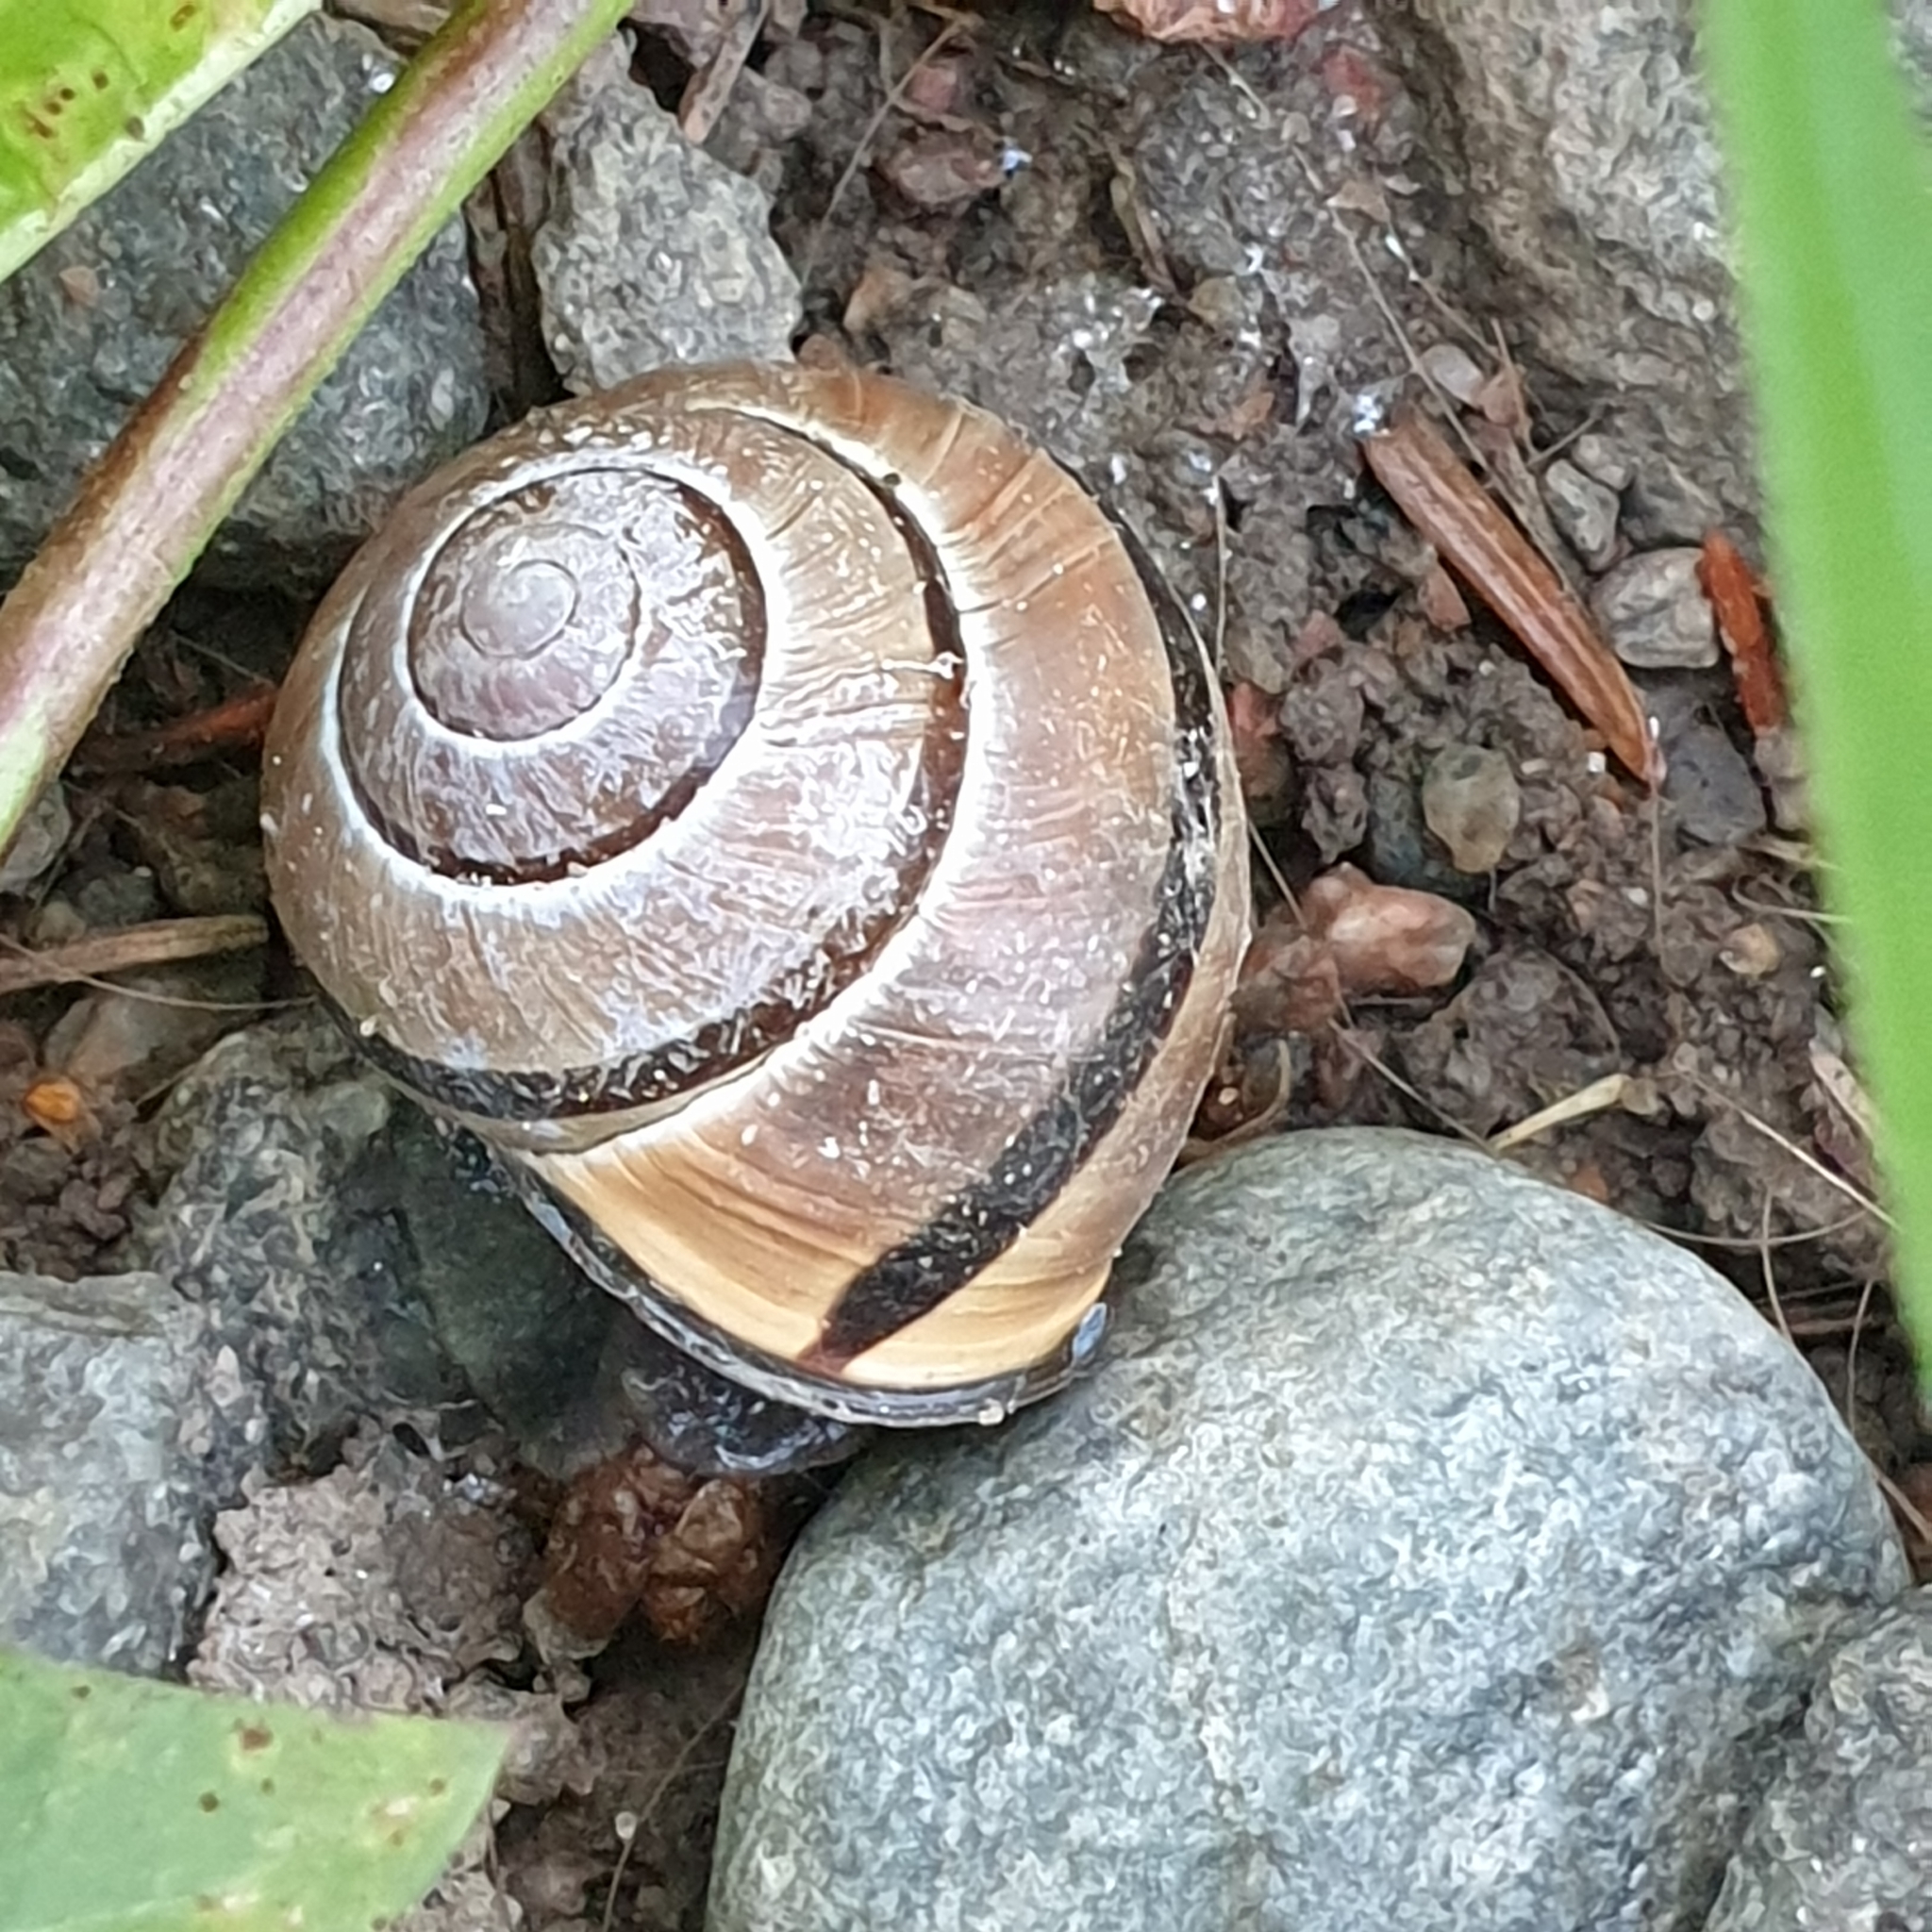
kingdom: Animalia
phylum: Mollusca
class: Gastropoda
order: Stylommatophora
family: Helicidae
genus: Cepaea
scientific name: Cepaea nemoralis
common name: Grovesnail
